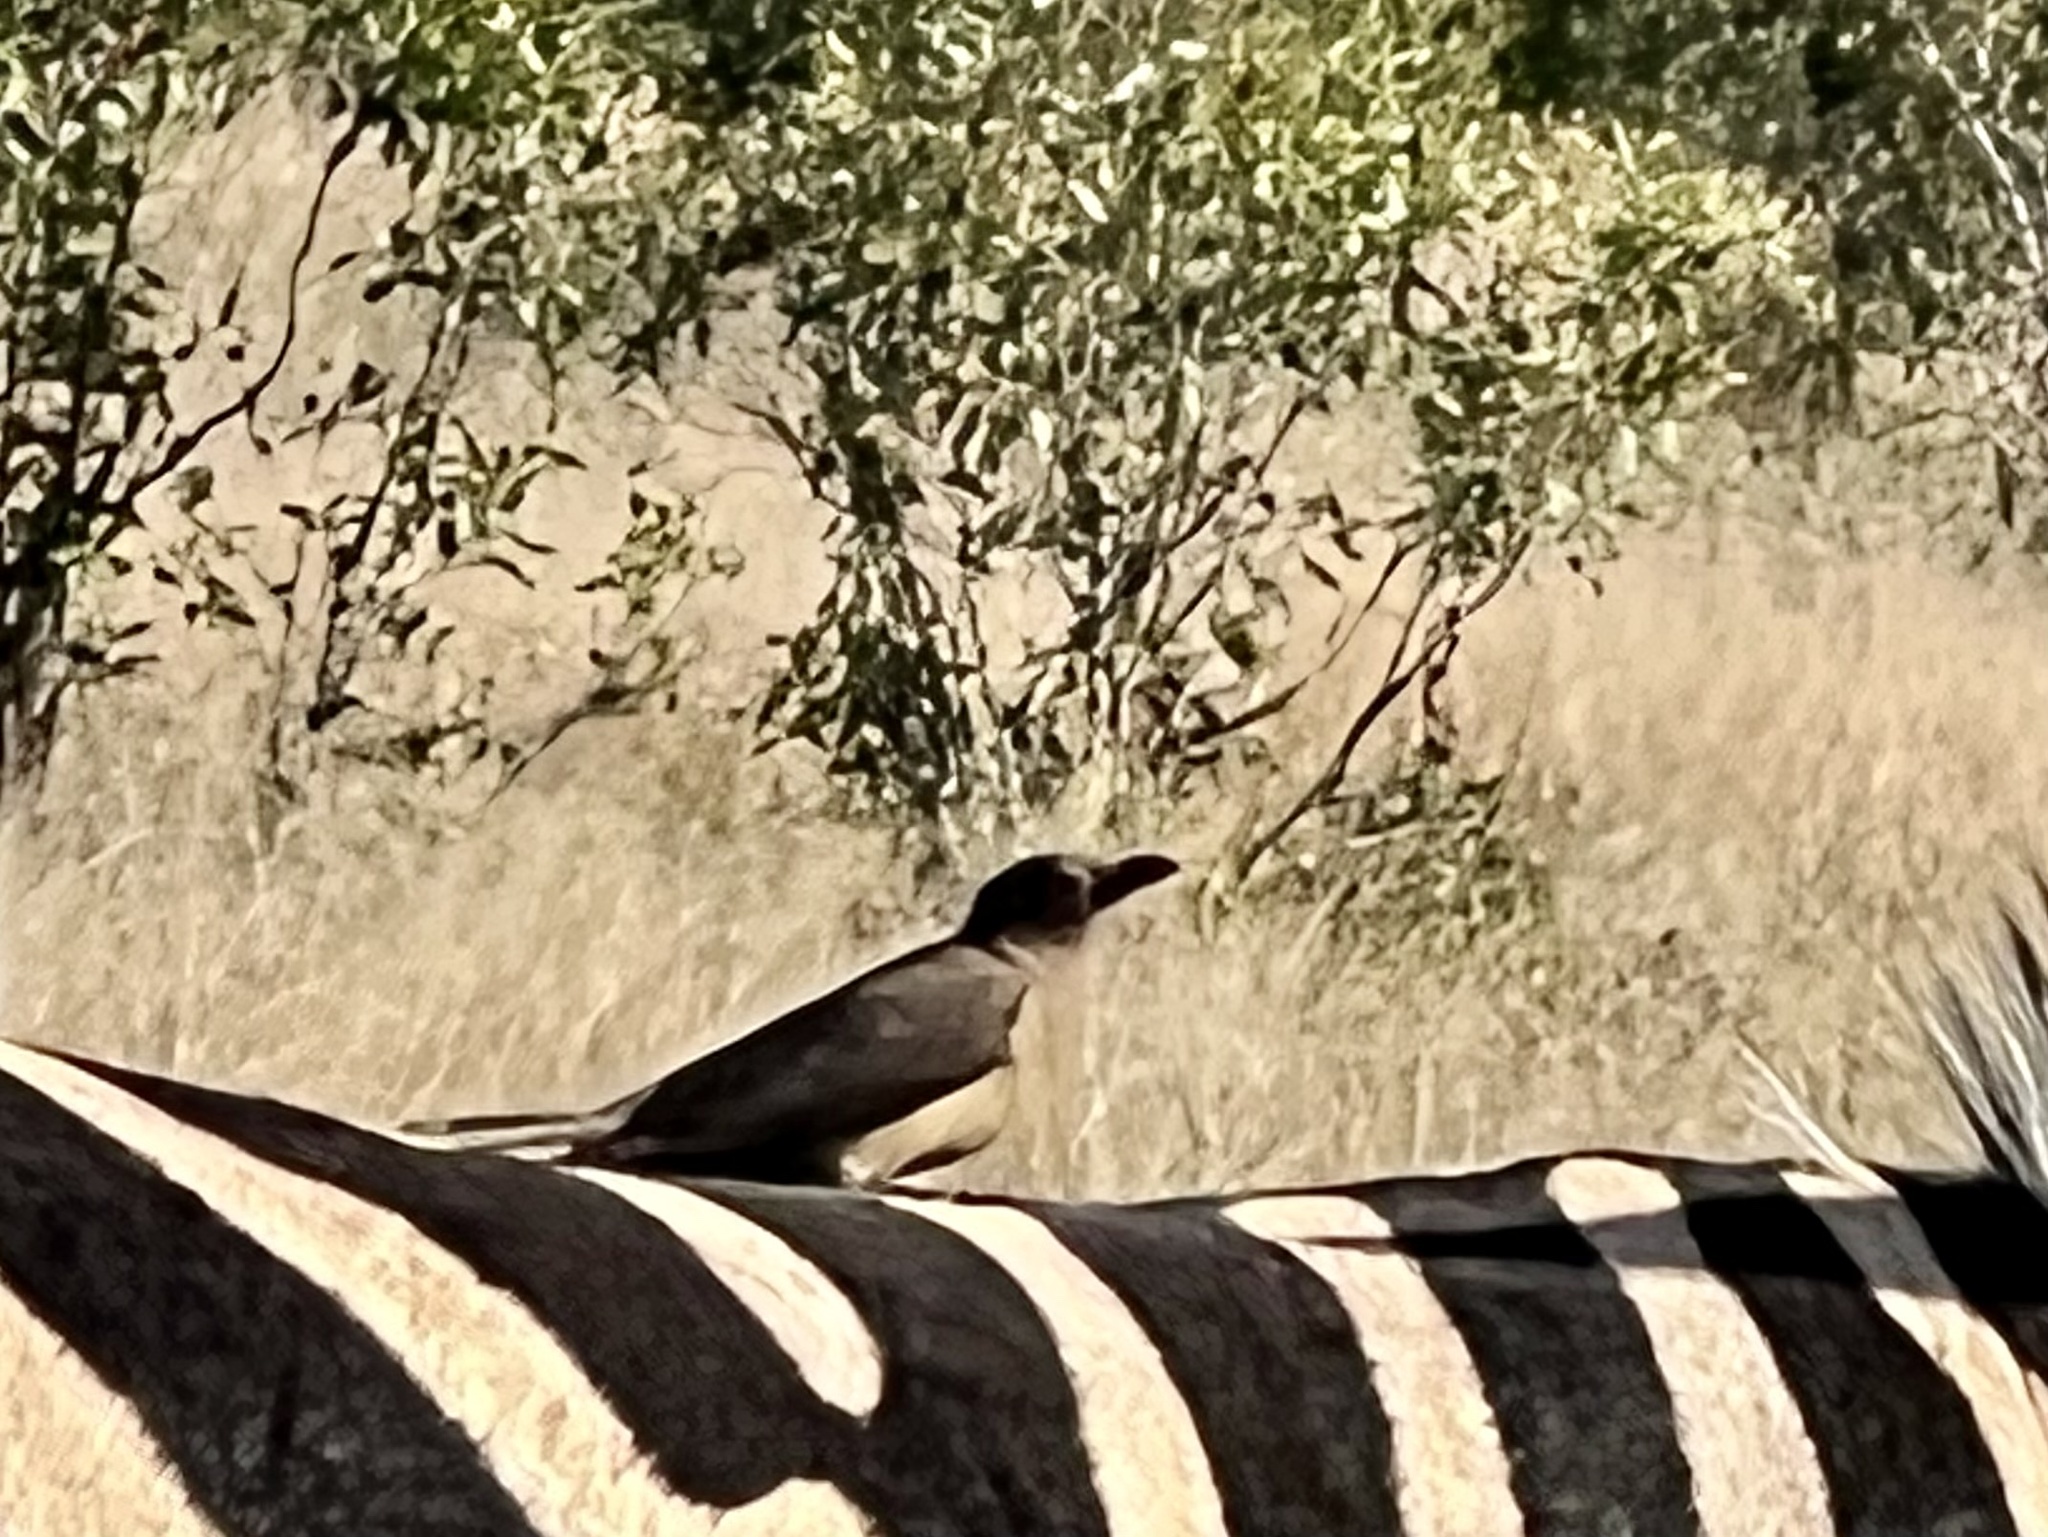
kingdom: Animalia
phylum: Chordata
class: Aves
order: Passeriformes
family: Buphagidae
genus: Buphagus
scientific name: Buphagus erythrorhynchus
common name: Red-billed oxpecker
